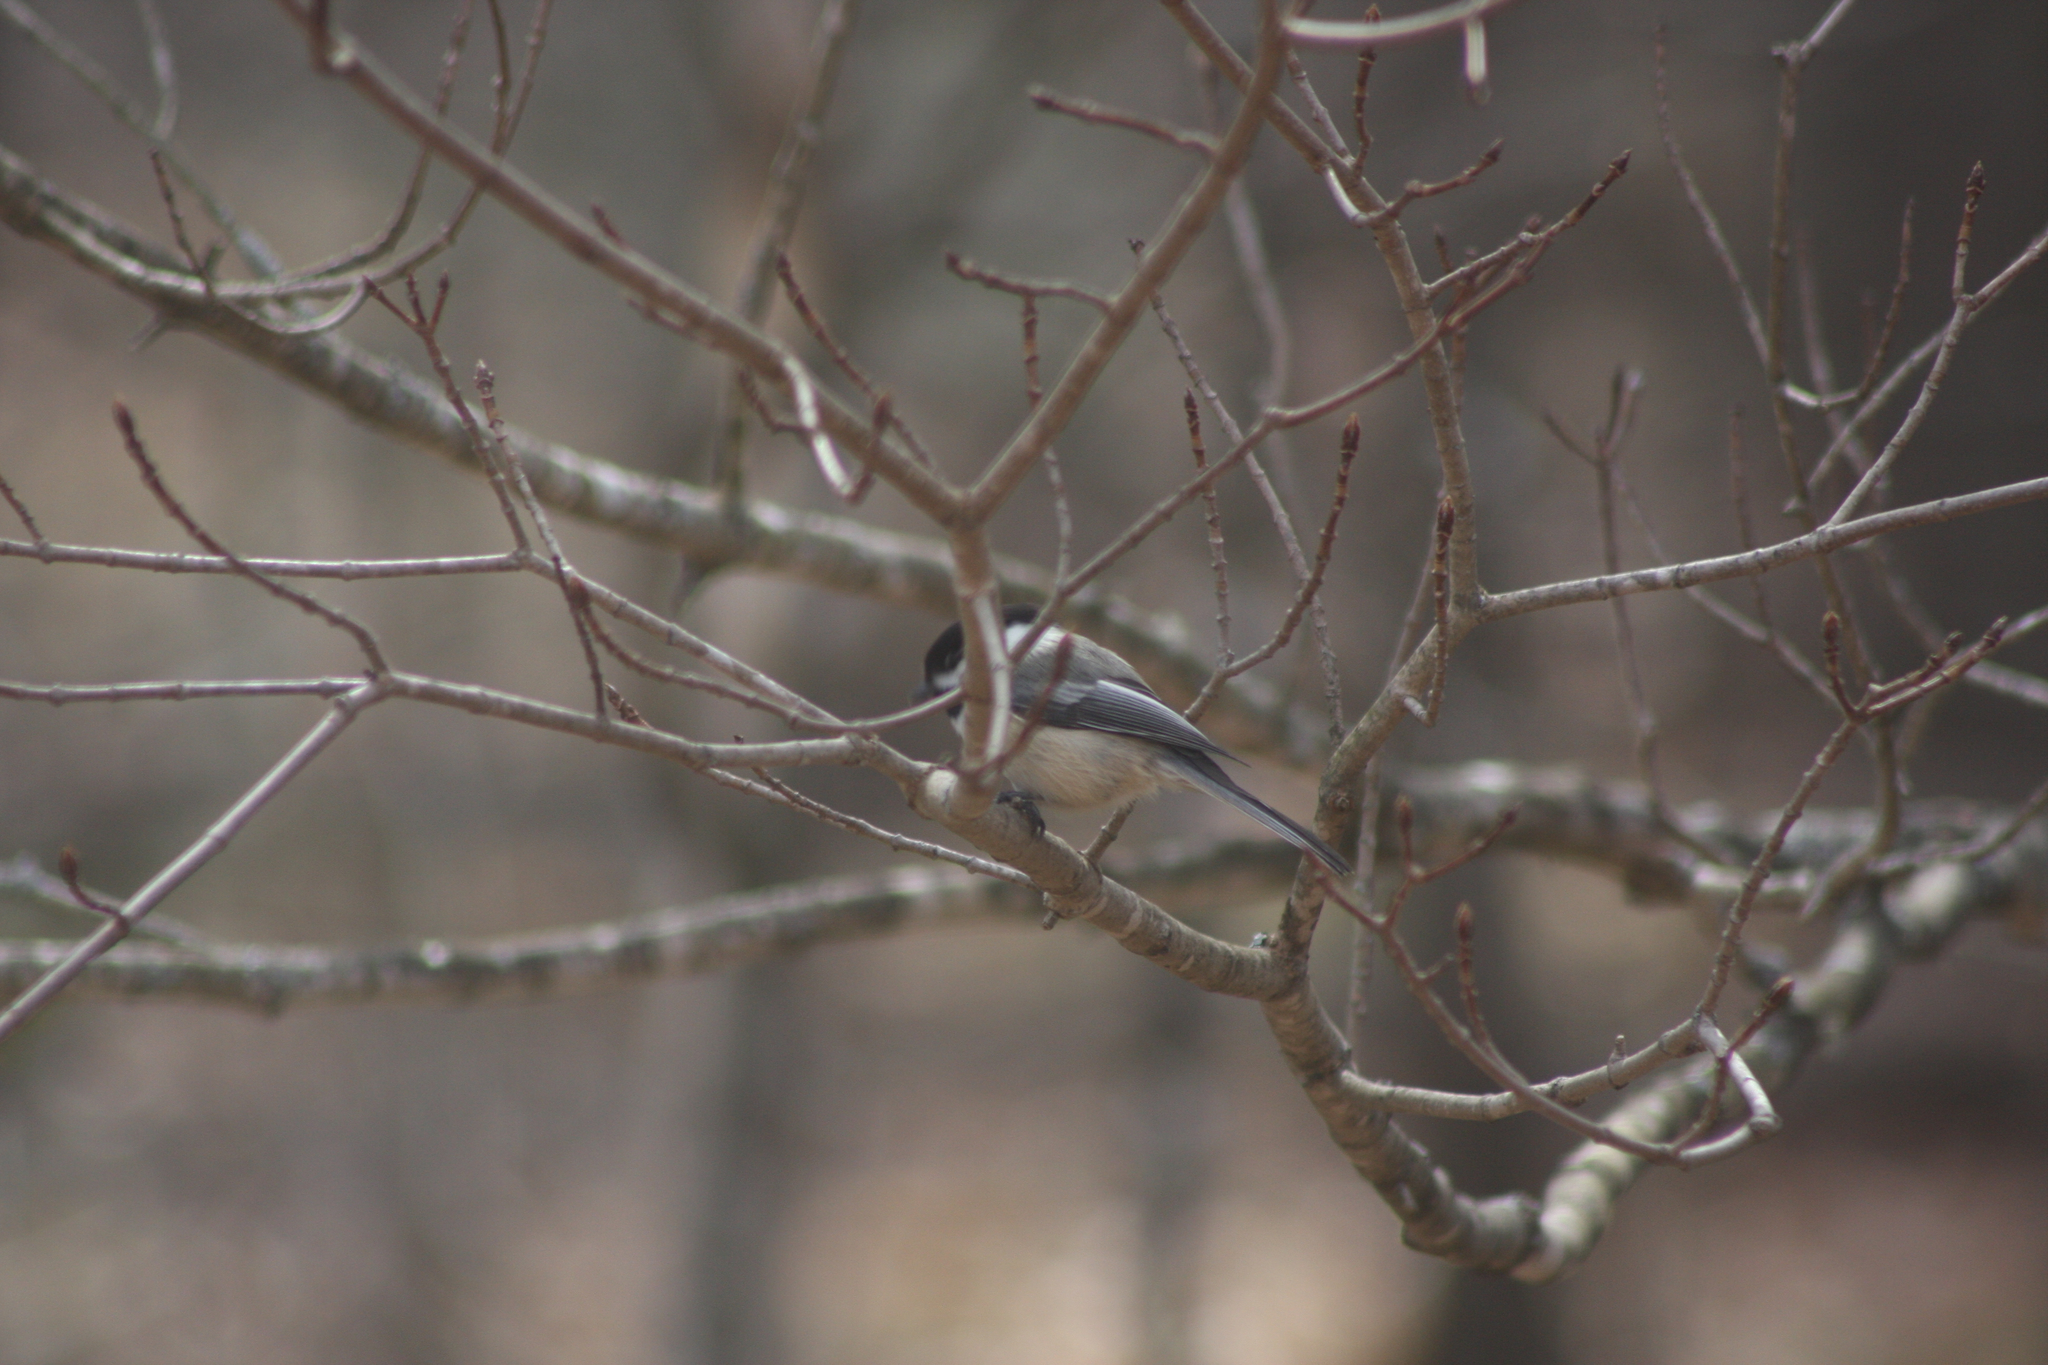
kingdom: Animalia
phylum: Chordata
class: Aves
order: Passeriformes
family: Paridae
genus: Poecile
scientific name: Poecile atricapillus
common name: Black-capped chickadee
